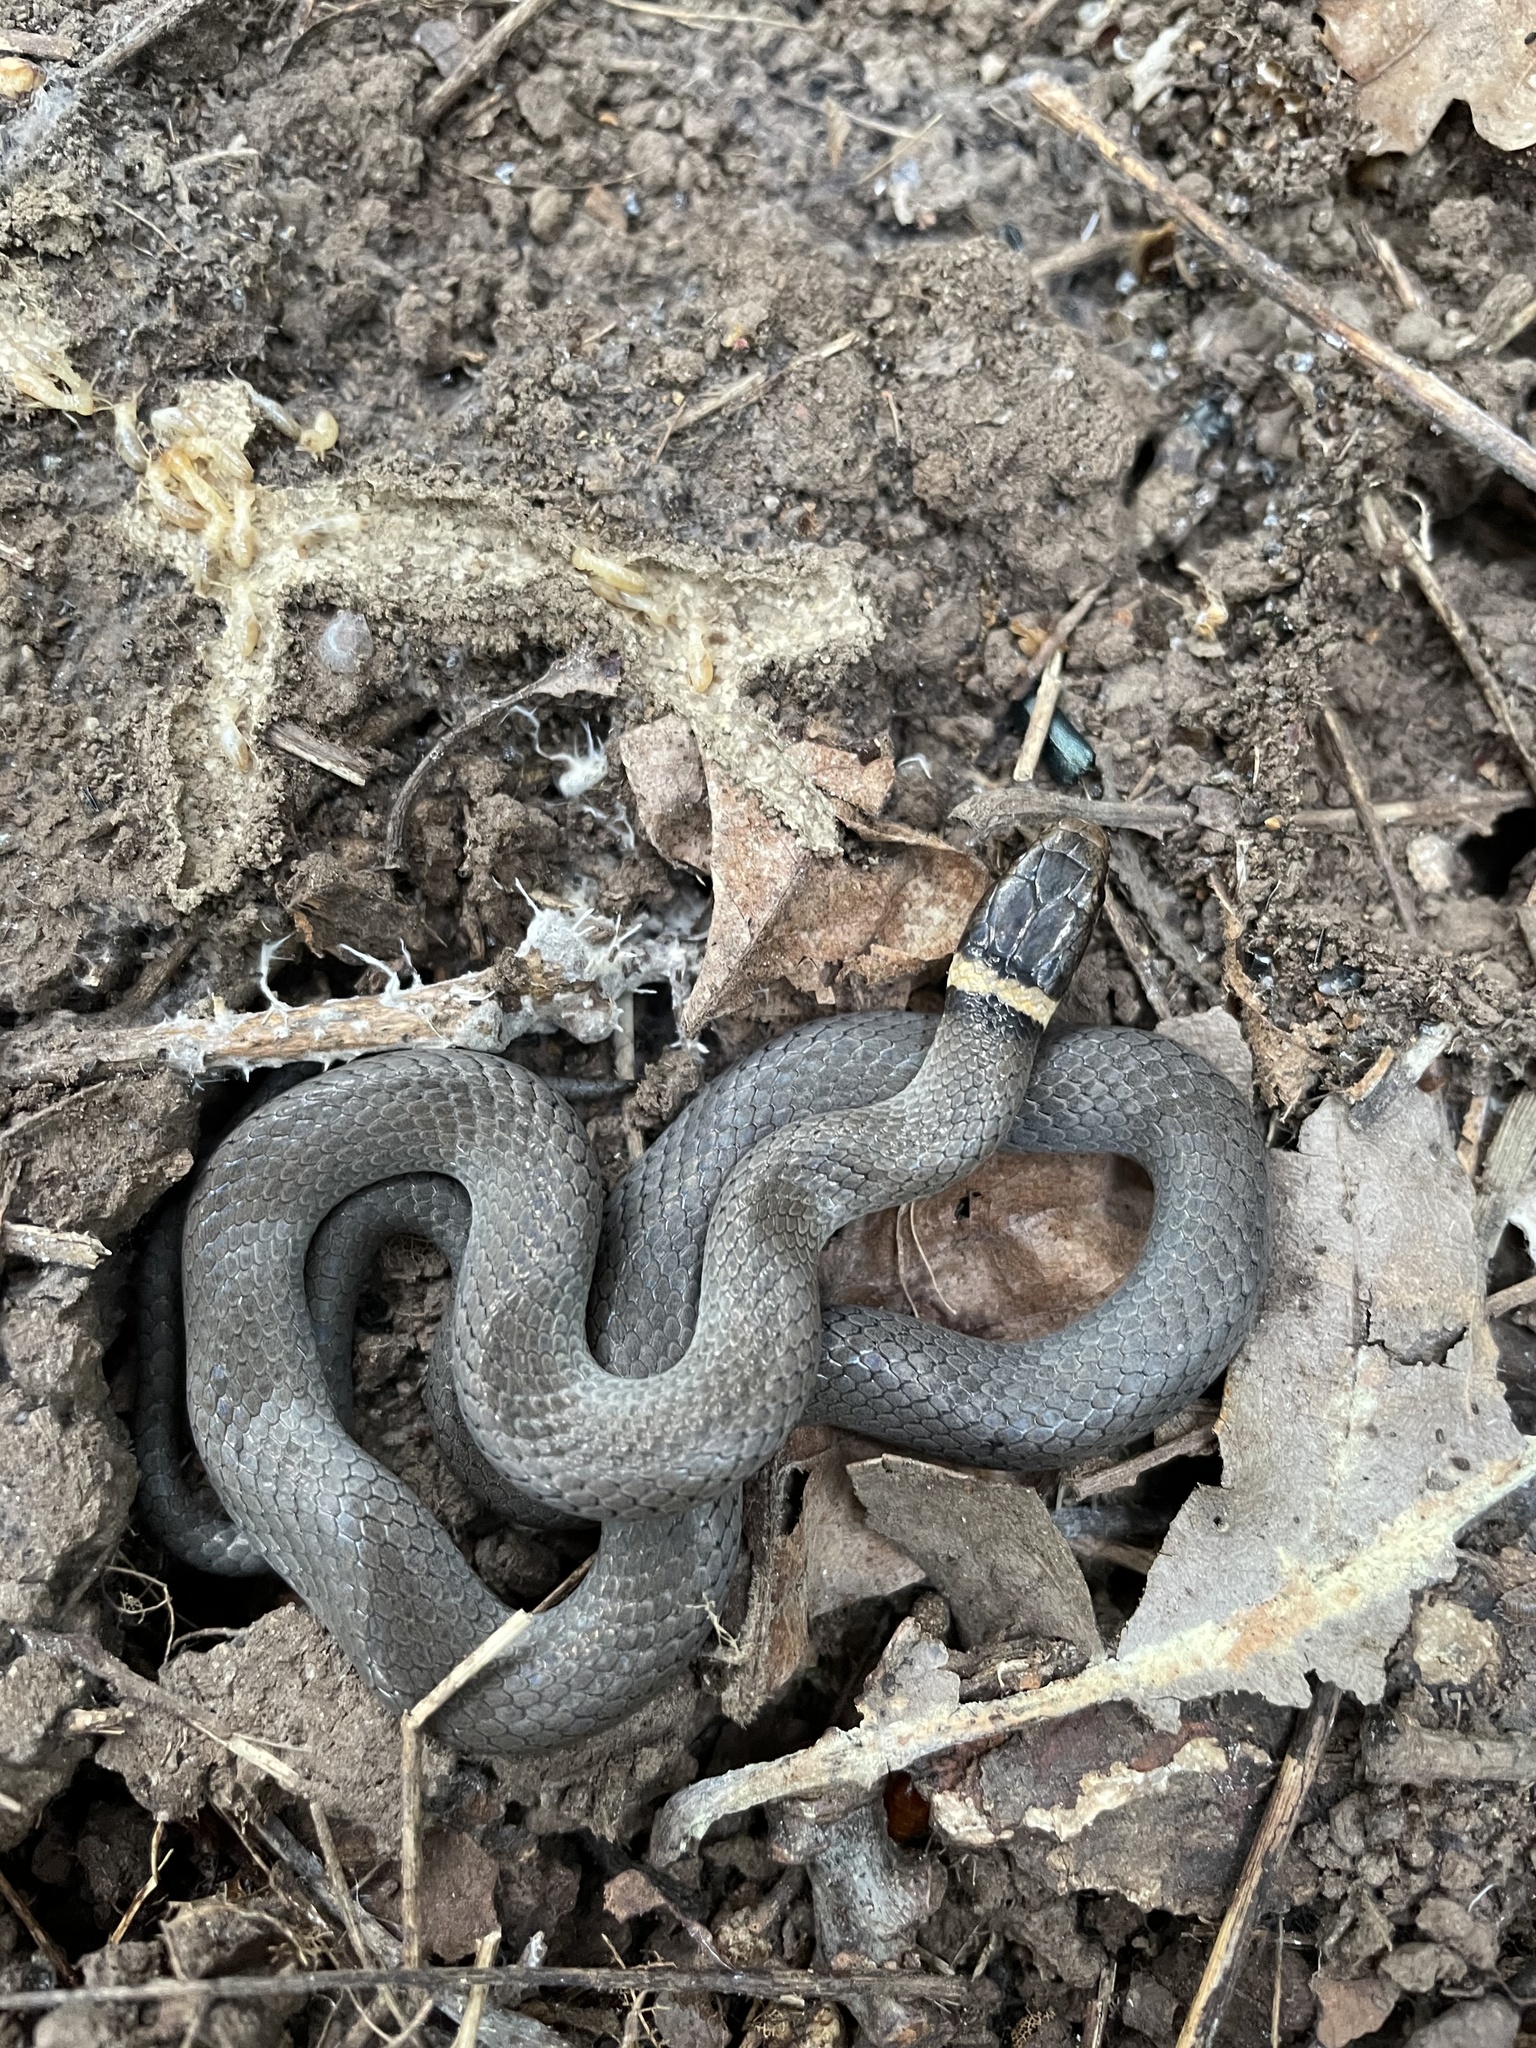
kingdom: Animalia
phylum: Chordata
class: Squamata
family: Colubridae
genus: Diadophis
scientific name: Diadophis punctatus
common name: Ringneck snake
